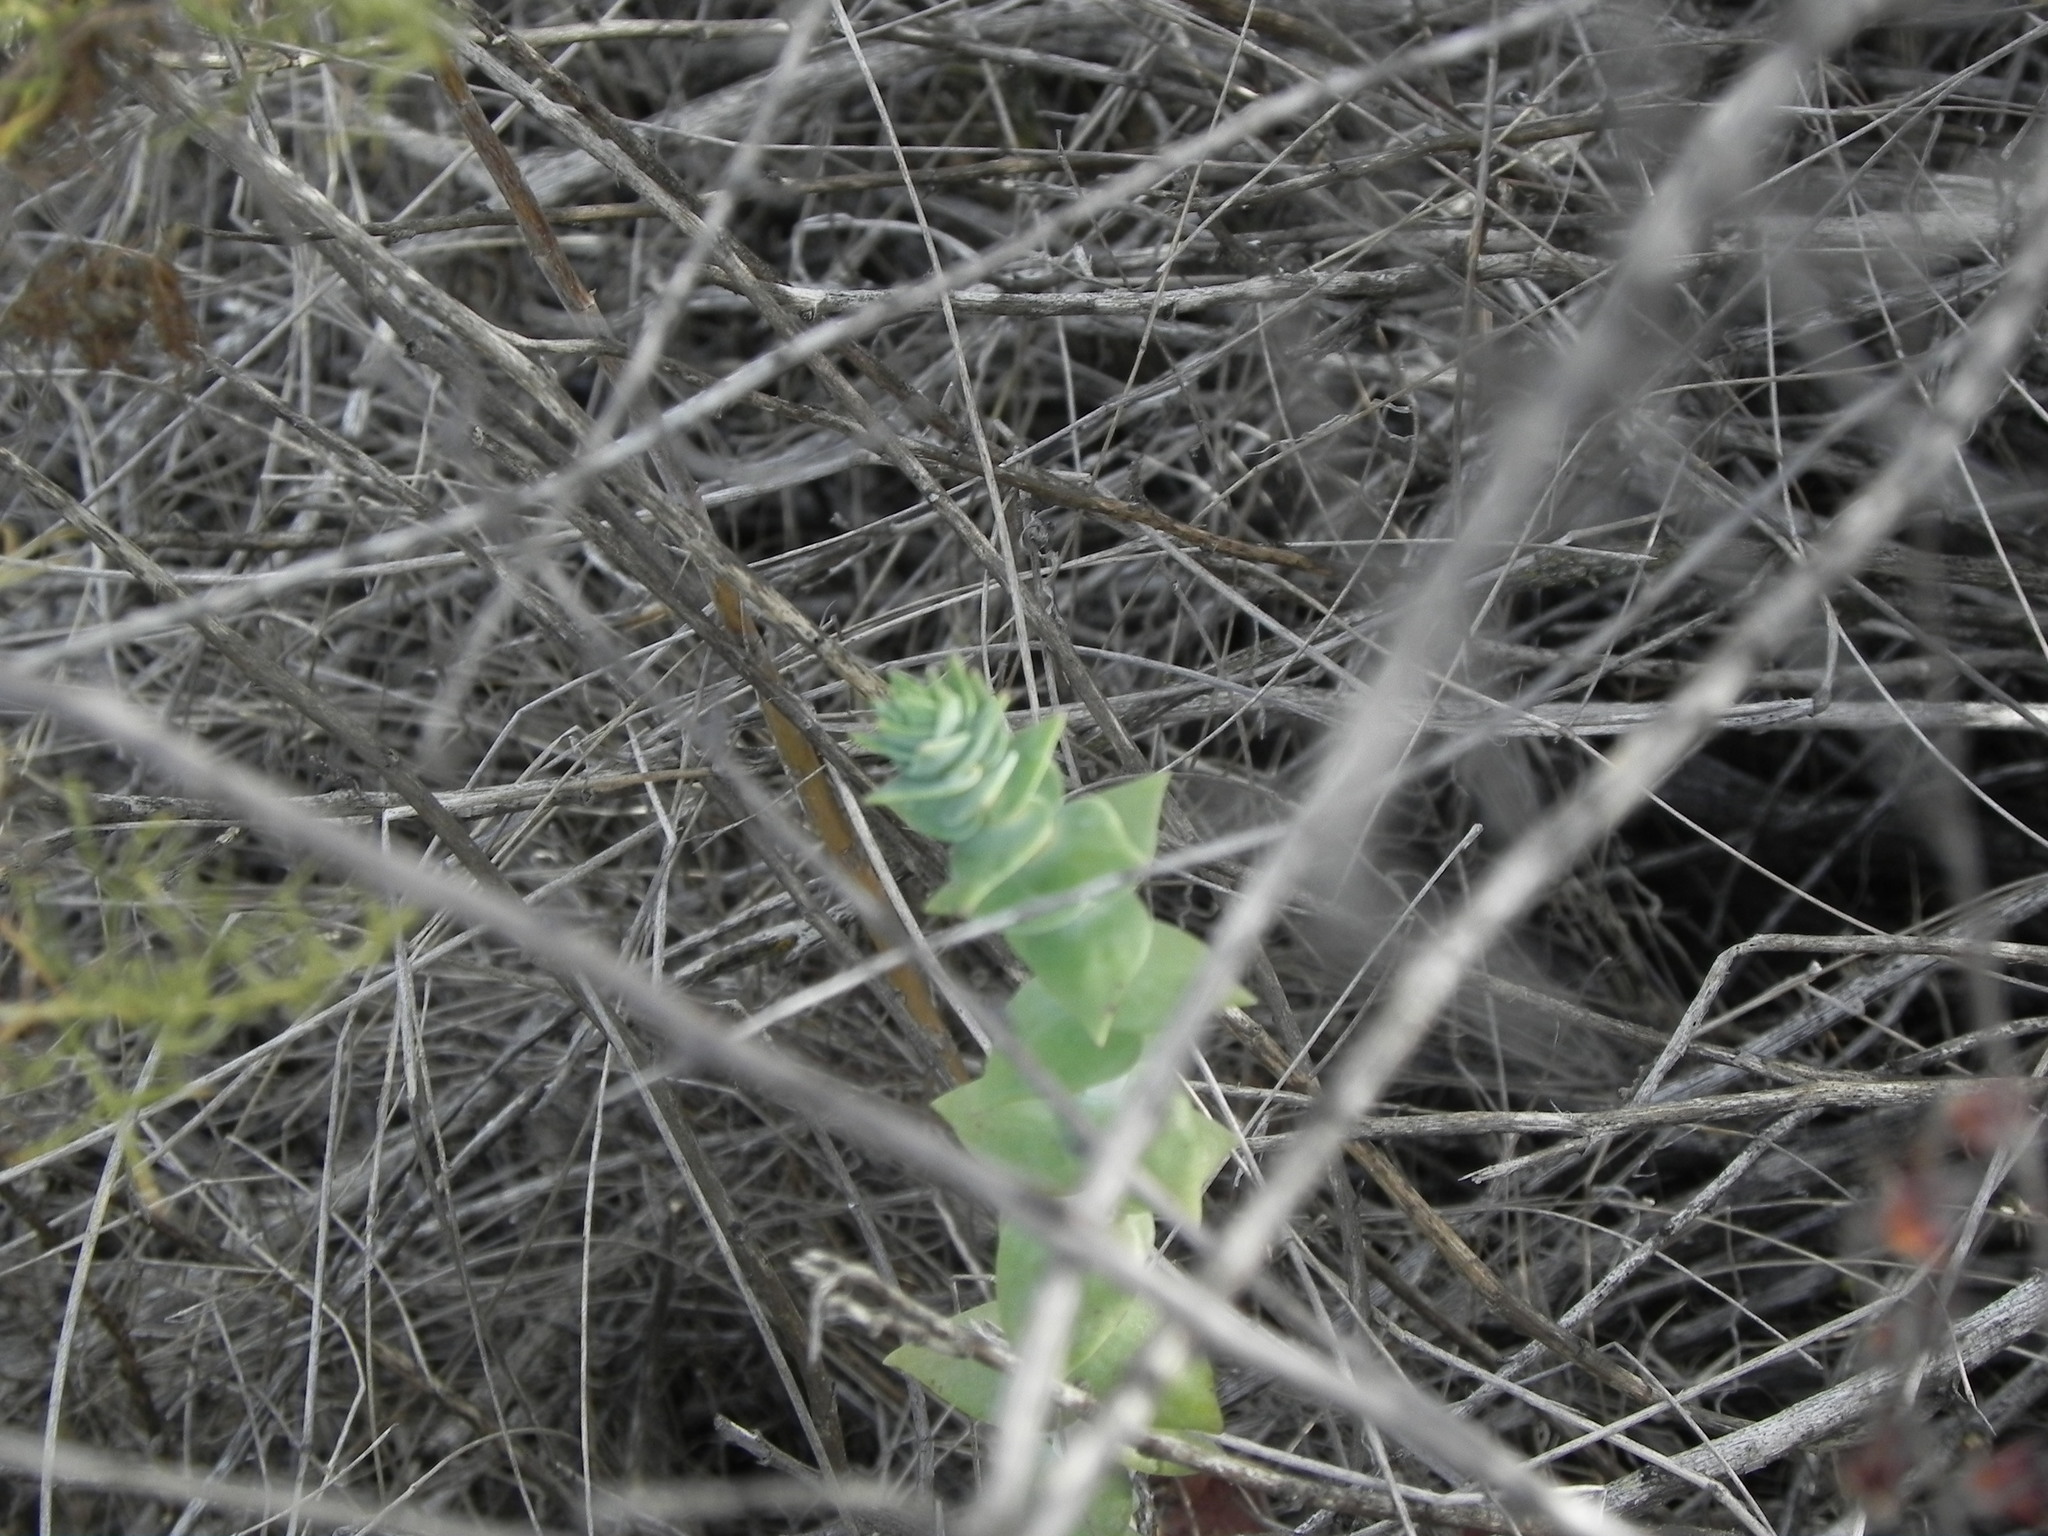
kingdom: Plantae
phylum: Tracheophyta
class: Magnoliopsida
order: Saxifragales
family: Crassulaceae
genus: Dudleya
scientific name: Dudleya pulverulenta
